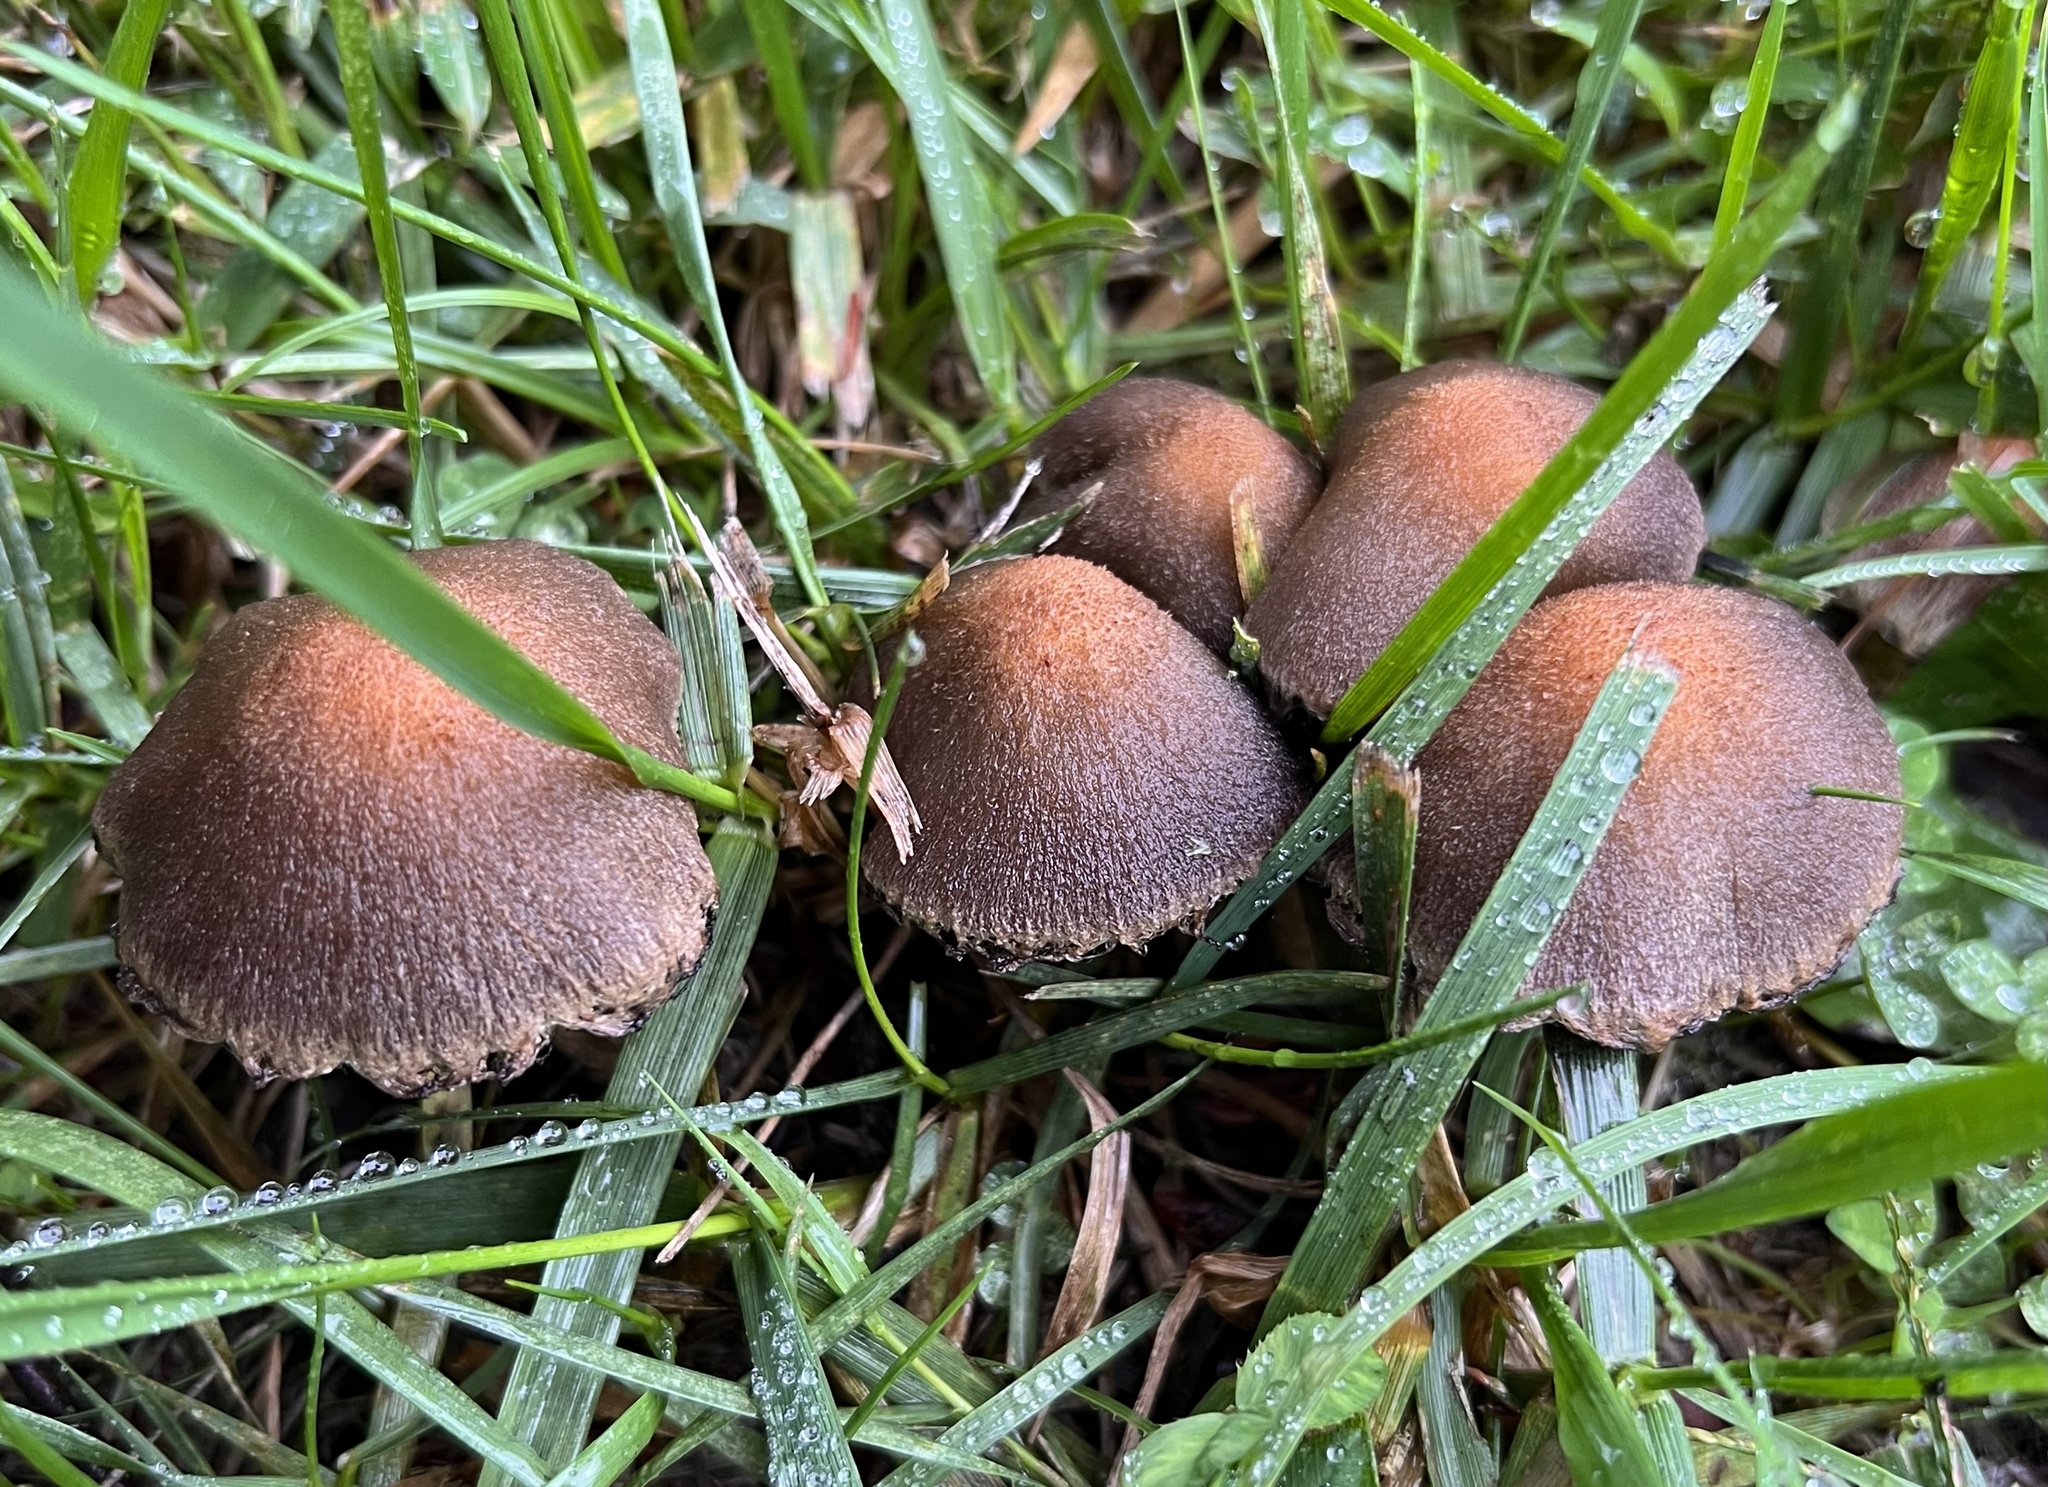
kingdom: Fungi
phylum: Basidiomycota
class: Agaricomycetes
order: Agaricales
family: Psathyrellaceae
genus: Lacrymaria
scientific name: Lacrymaria lacrymabunda
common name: Weeping widow
